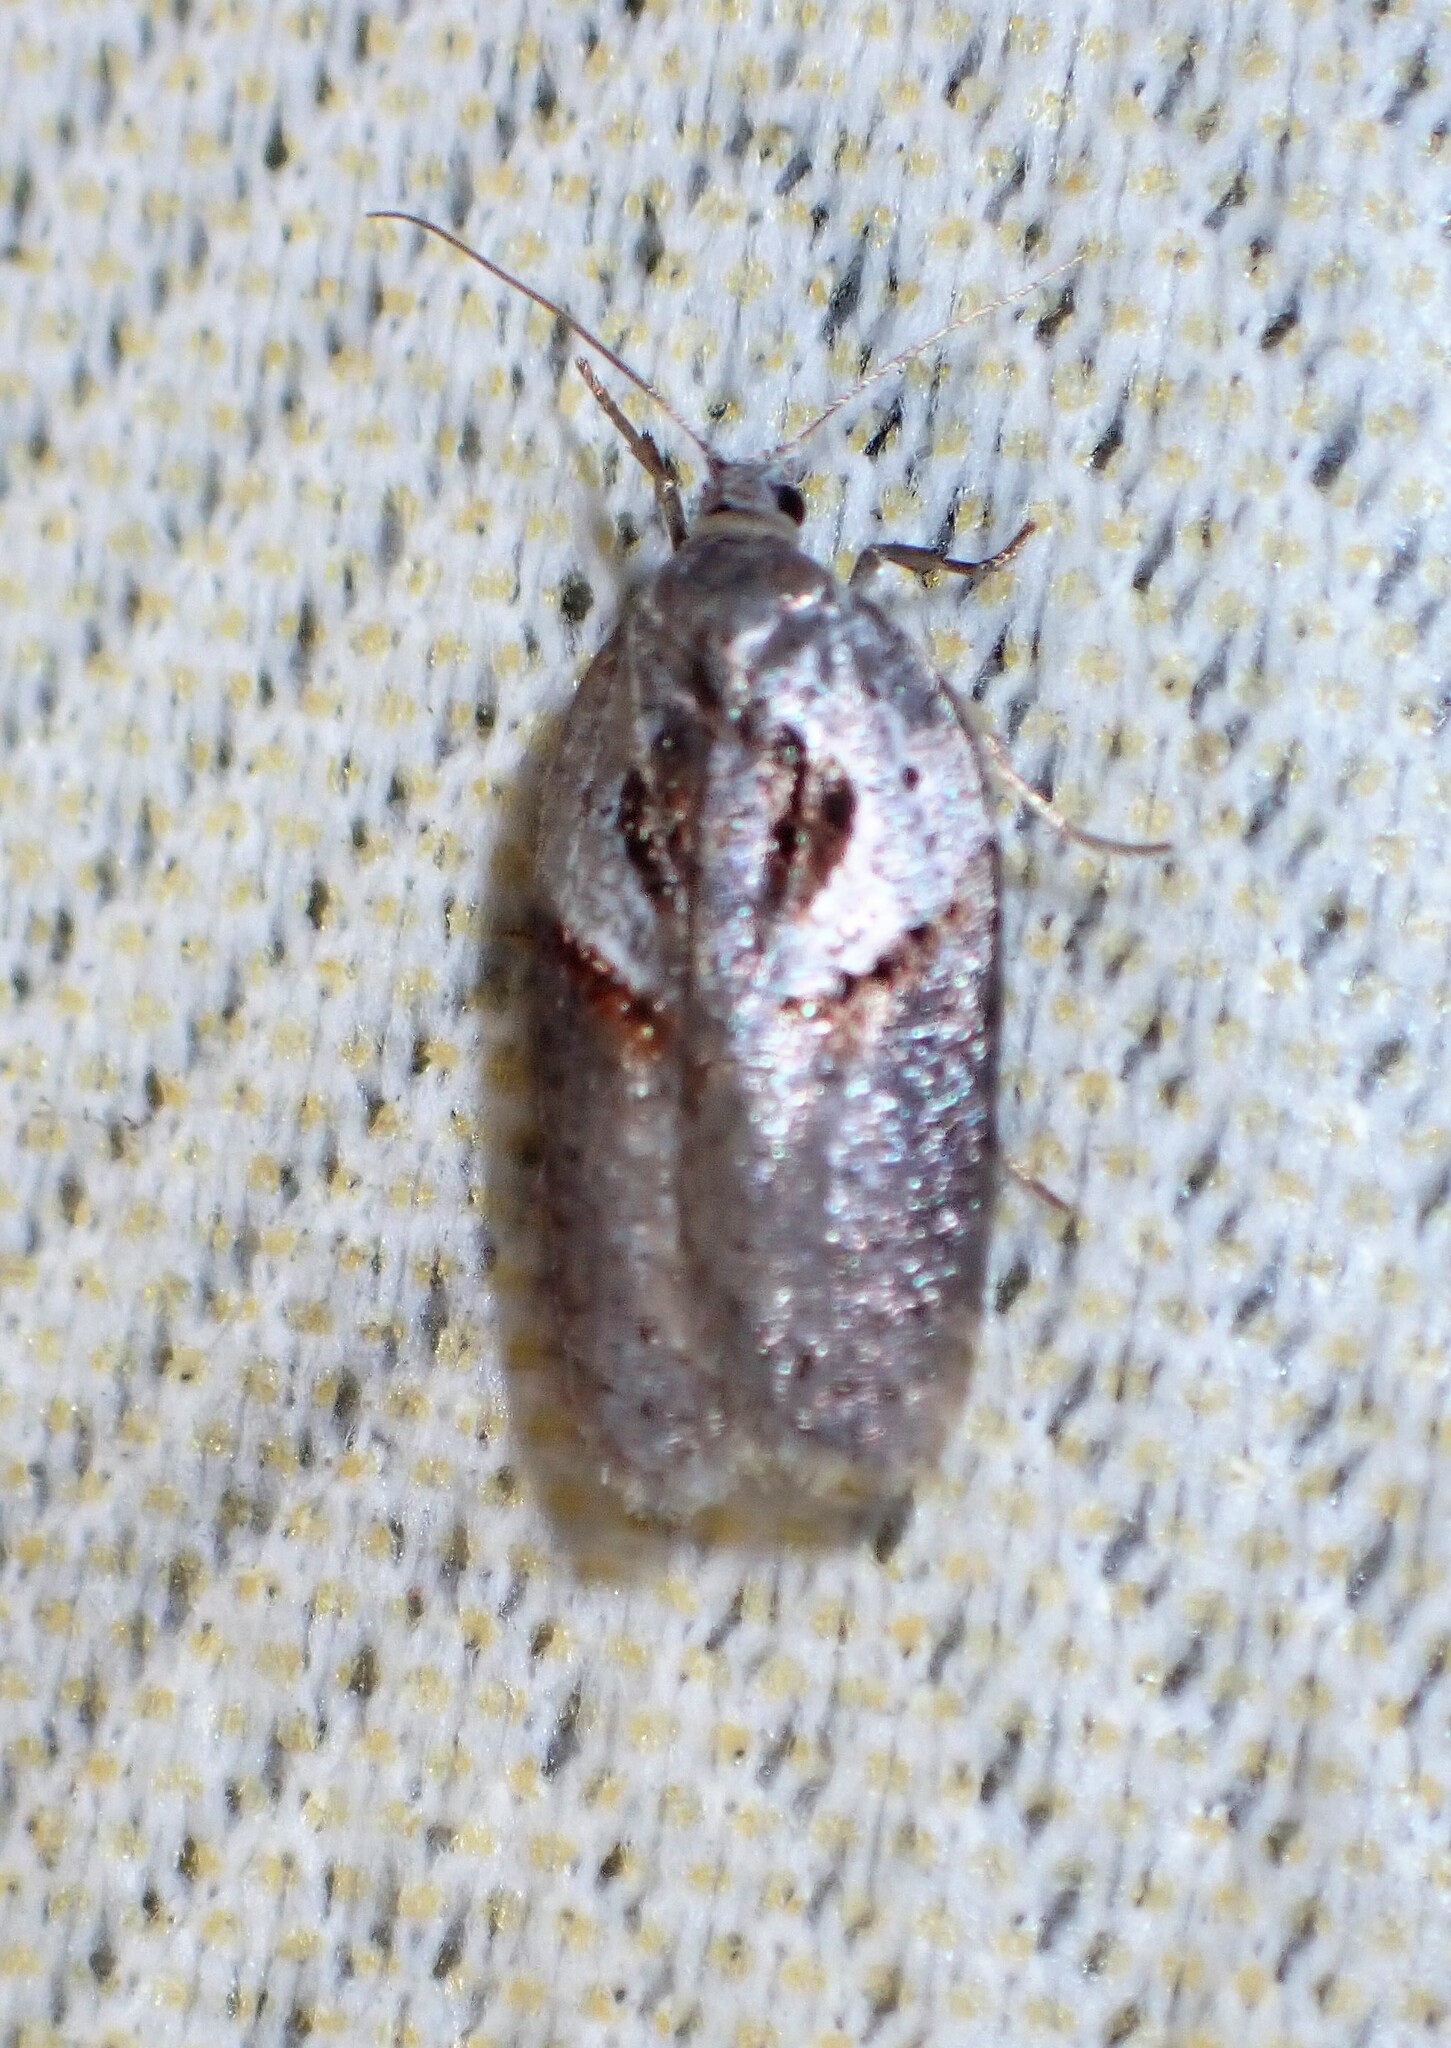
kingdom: Animalia
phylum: Arthropoda
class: Insecta
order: Lepidoptera
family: Tortricidae
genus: Acleris
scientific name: Acleris maculidorsana
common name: Stained-back leafroller moth
